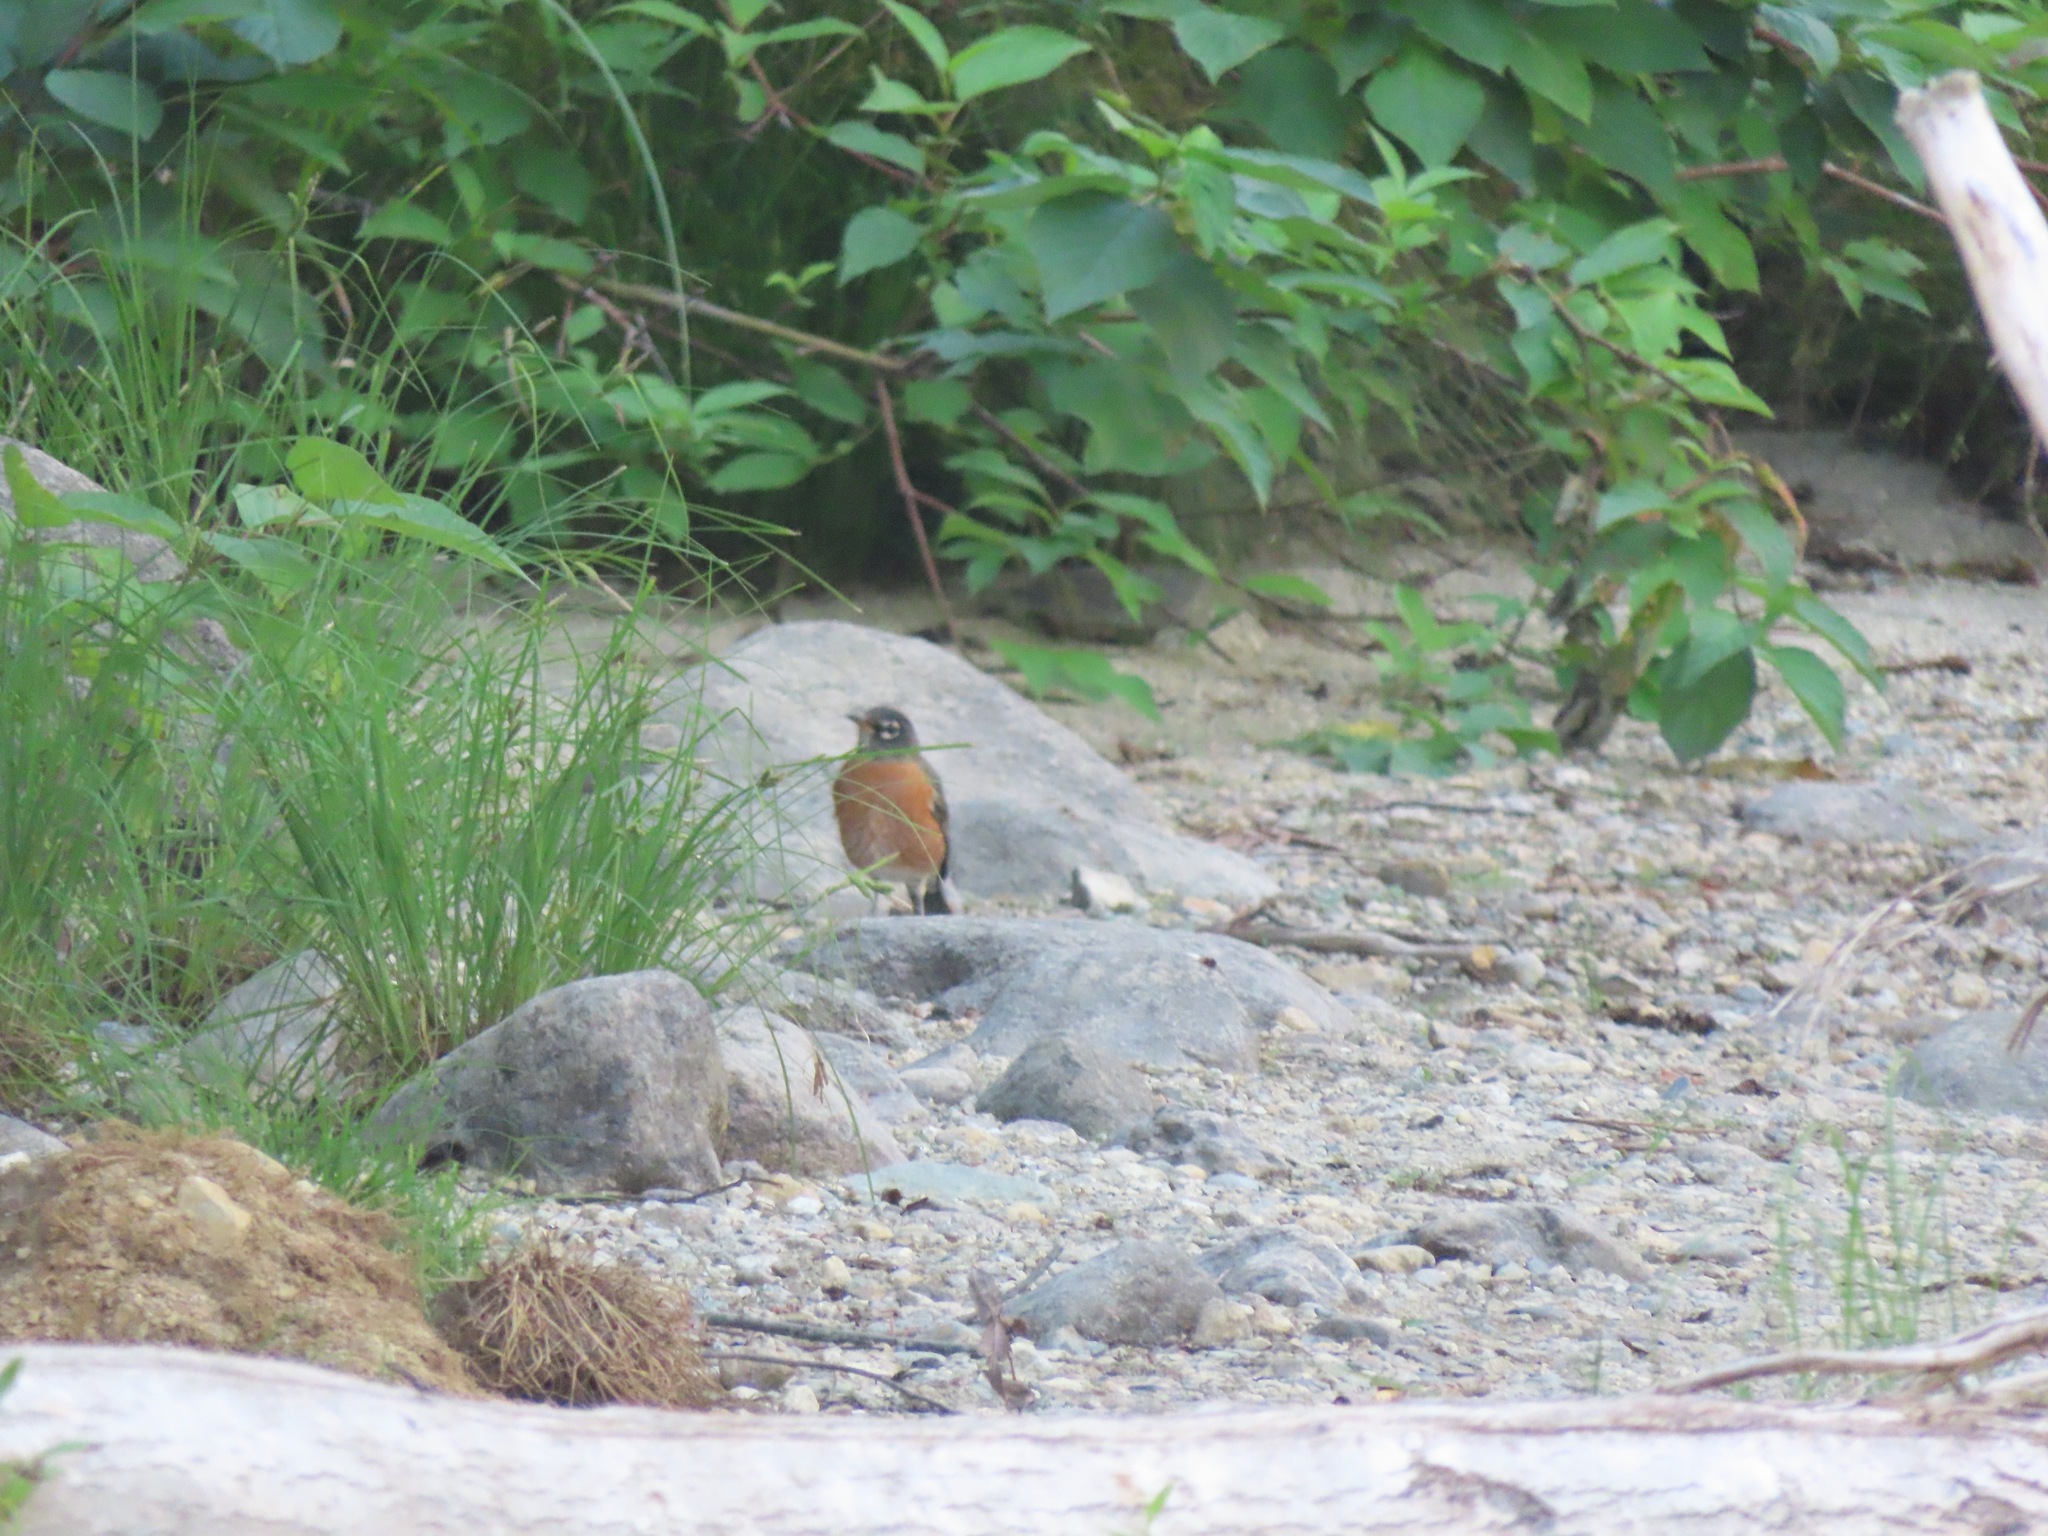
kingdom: Animalia
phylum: Chordata
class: Aves
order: Passeriformes
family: Turdidae
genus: Turdus
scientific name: Turdus migratorius
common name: American robin
